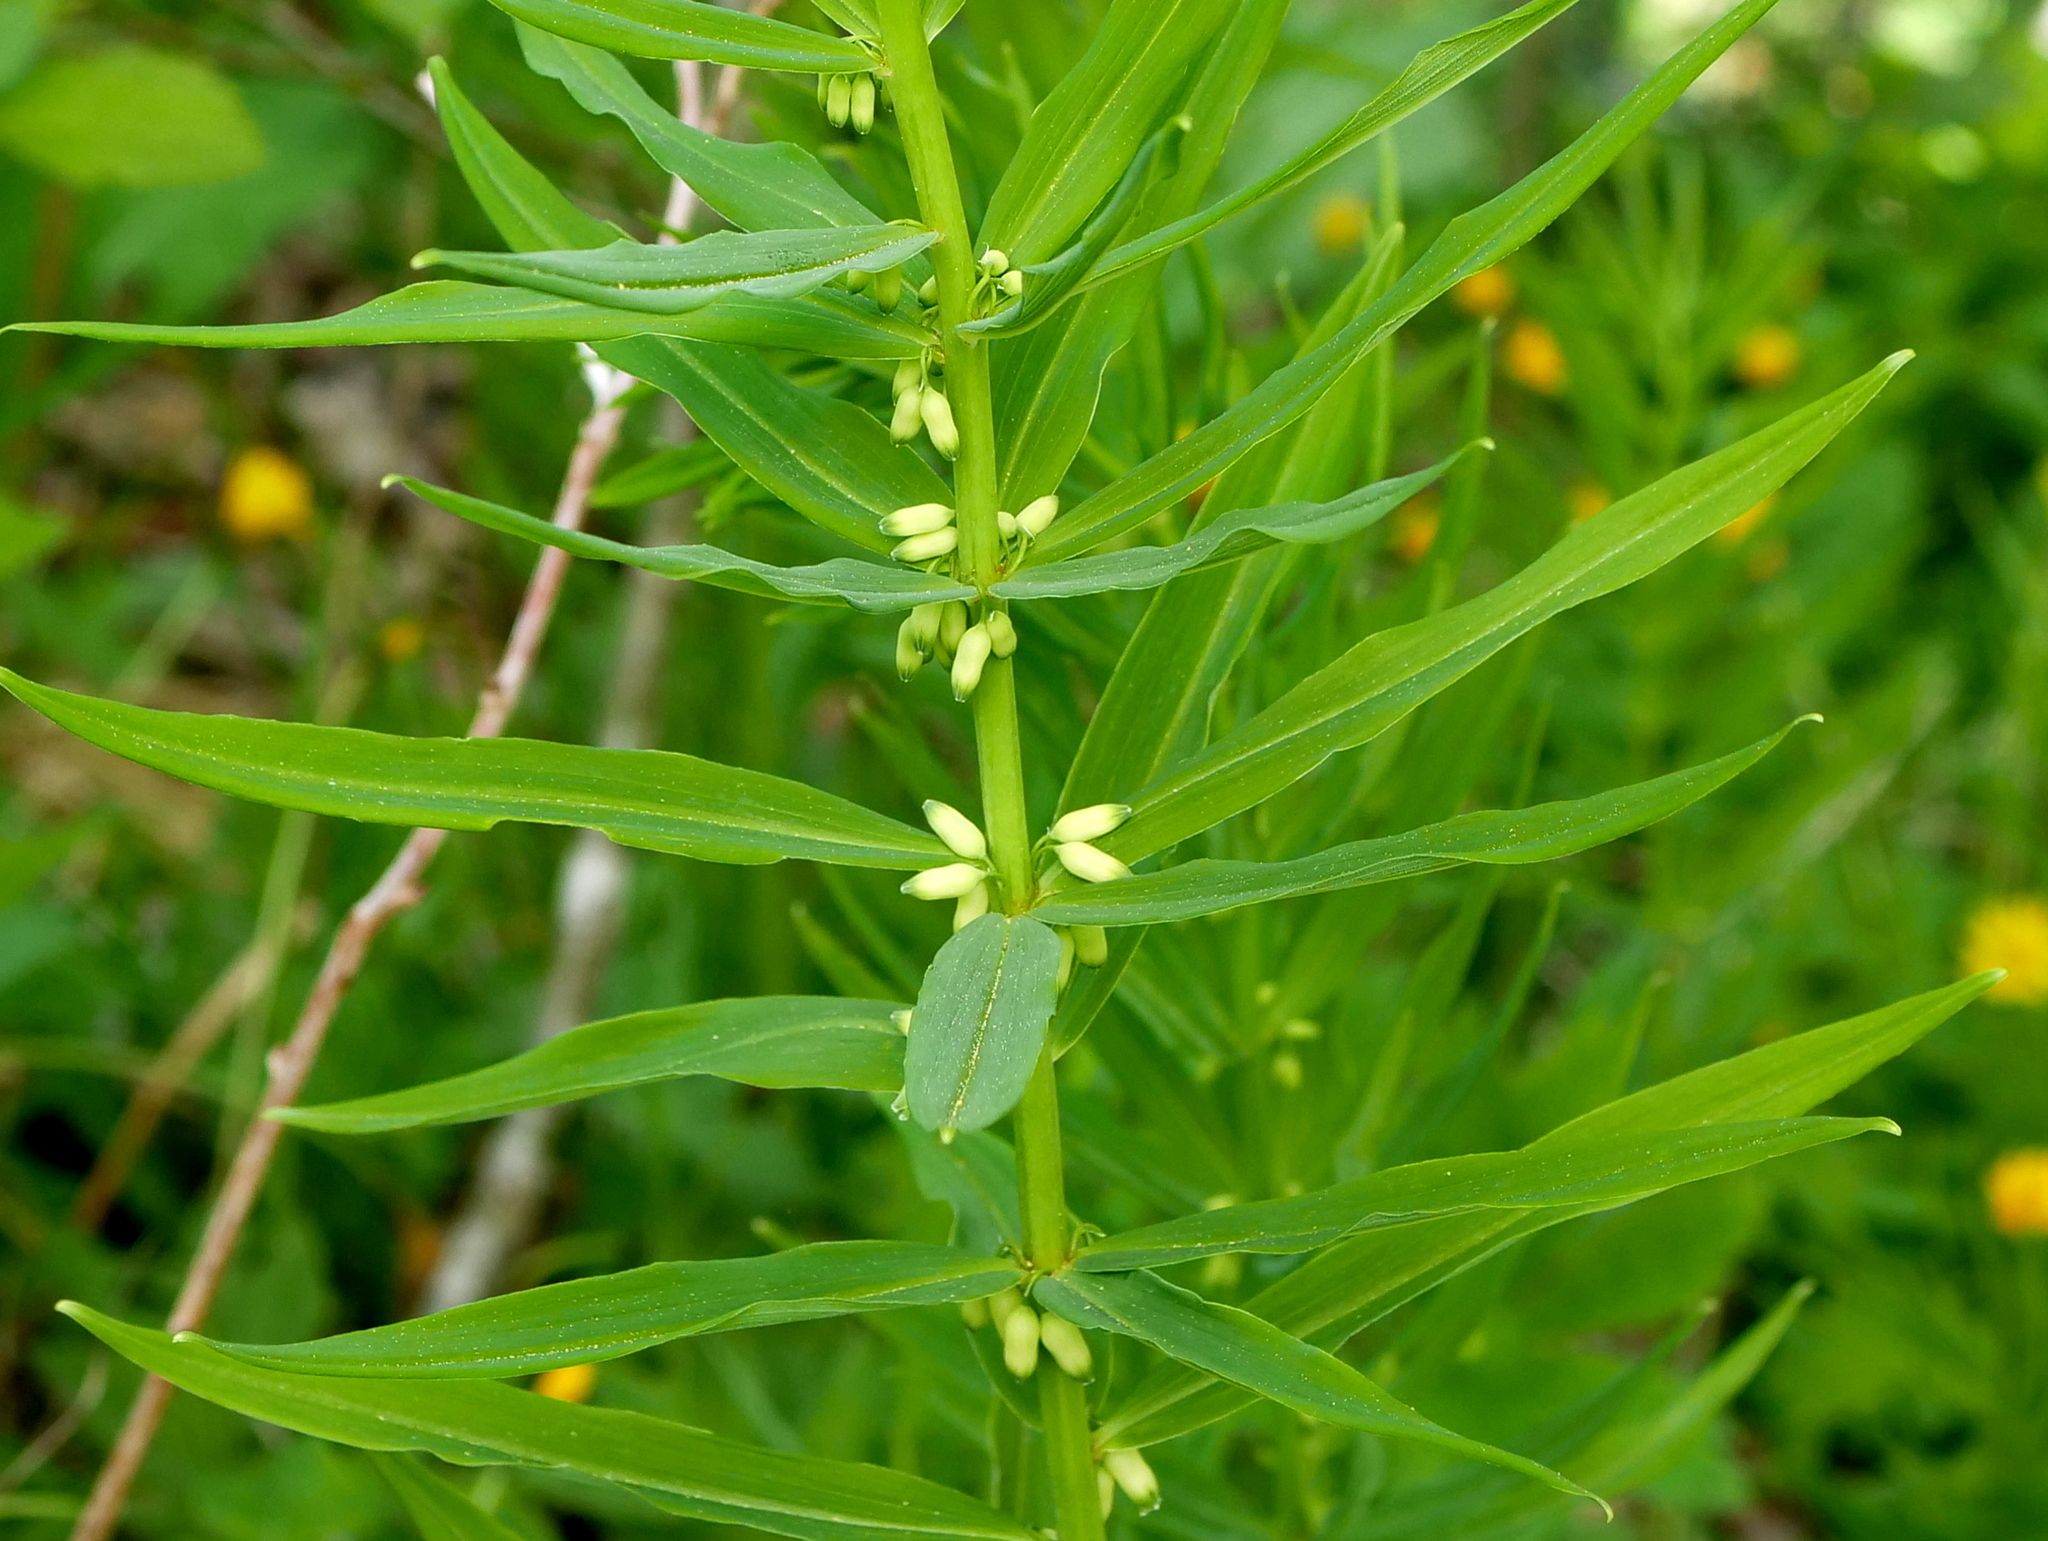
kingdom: Plantae
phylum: Tracheophyta
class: Liliopsida
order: Asparagales
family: Asparagaceae
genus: Polygonatum
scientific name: Polygonatum verticillatum
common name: Whorled solomon's-seal
